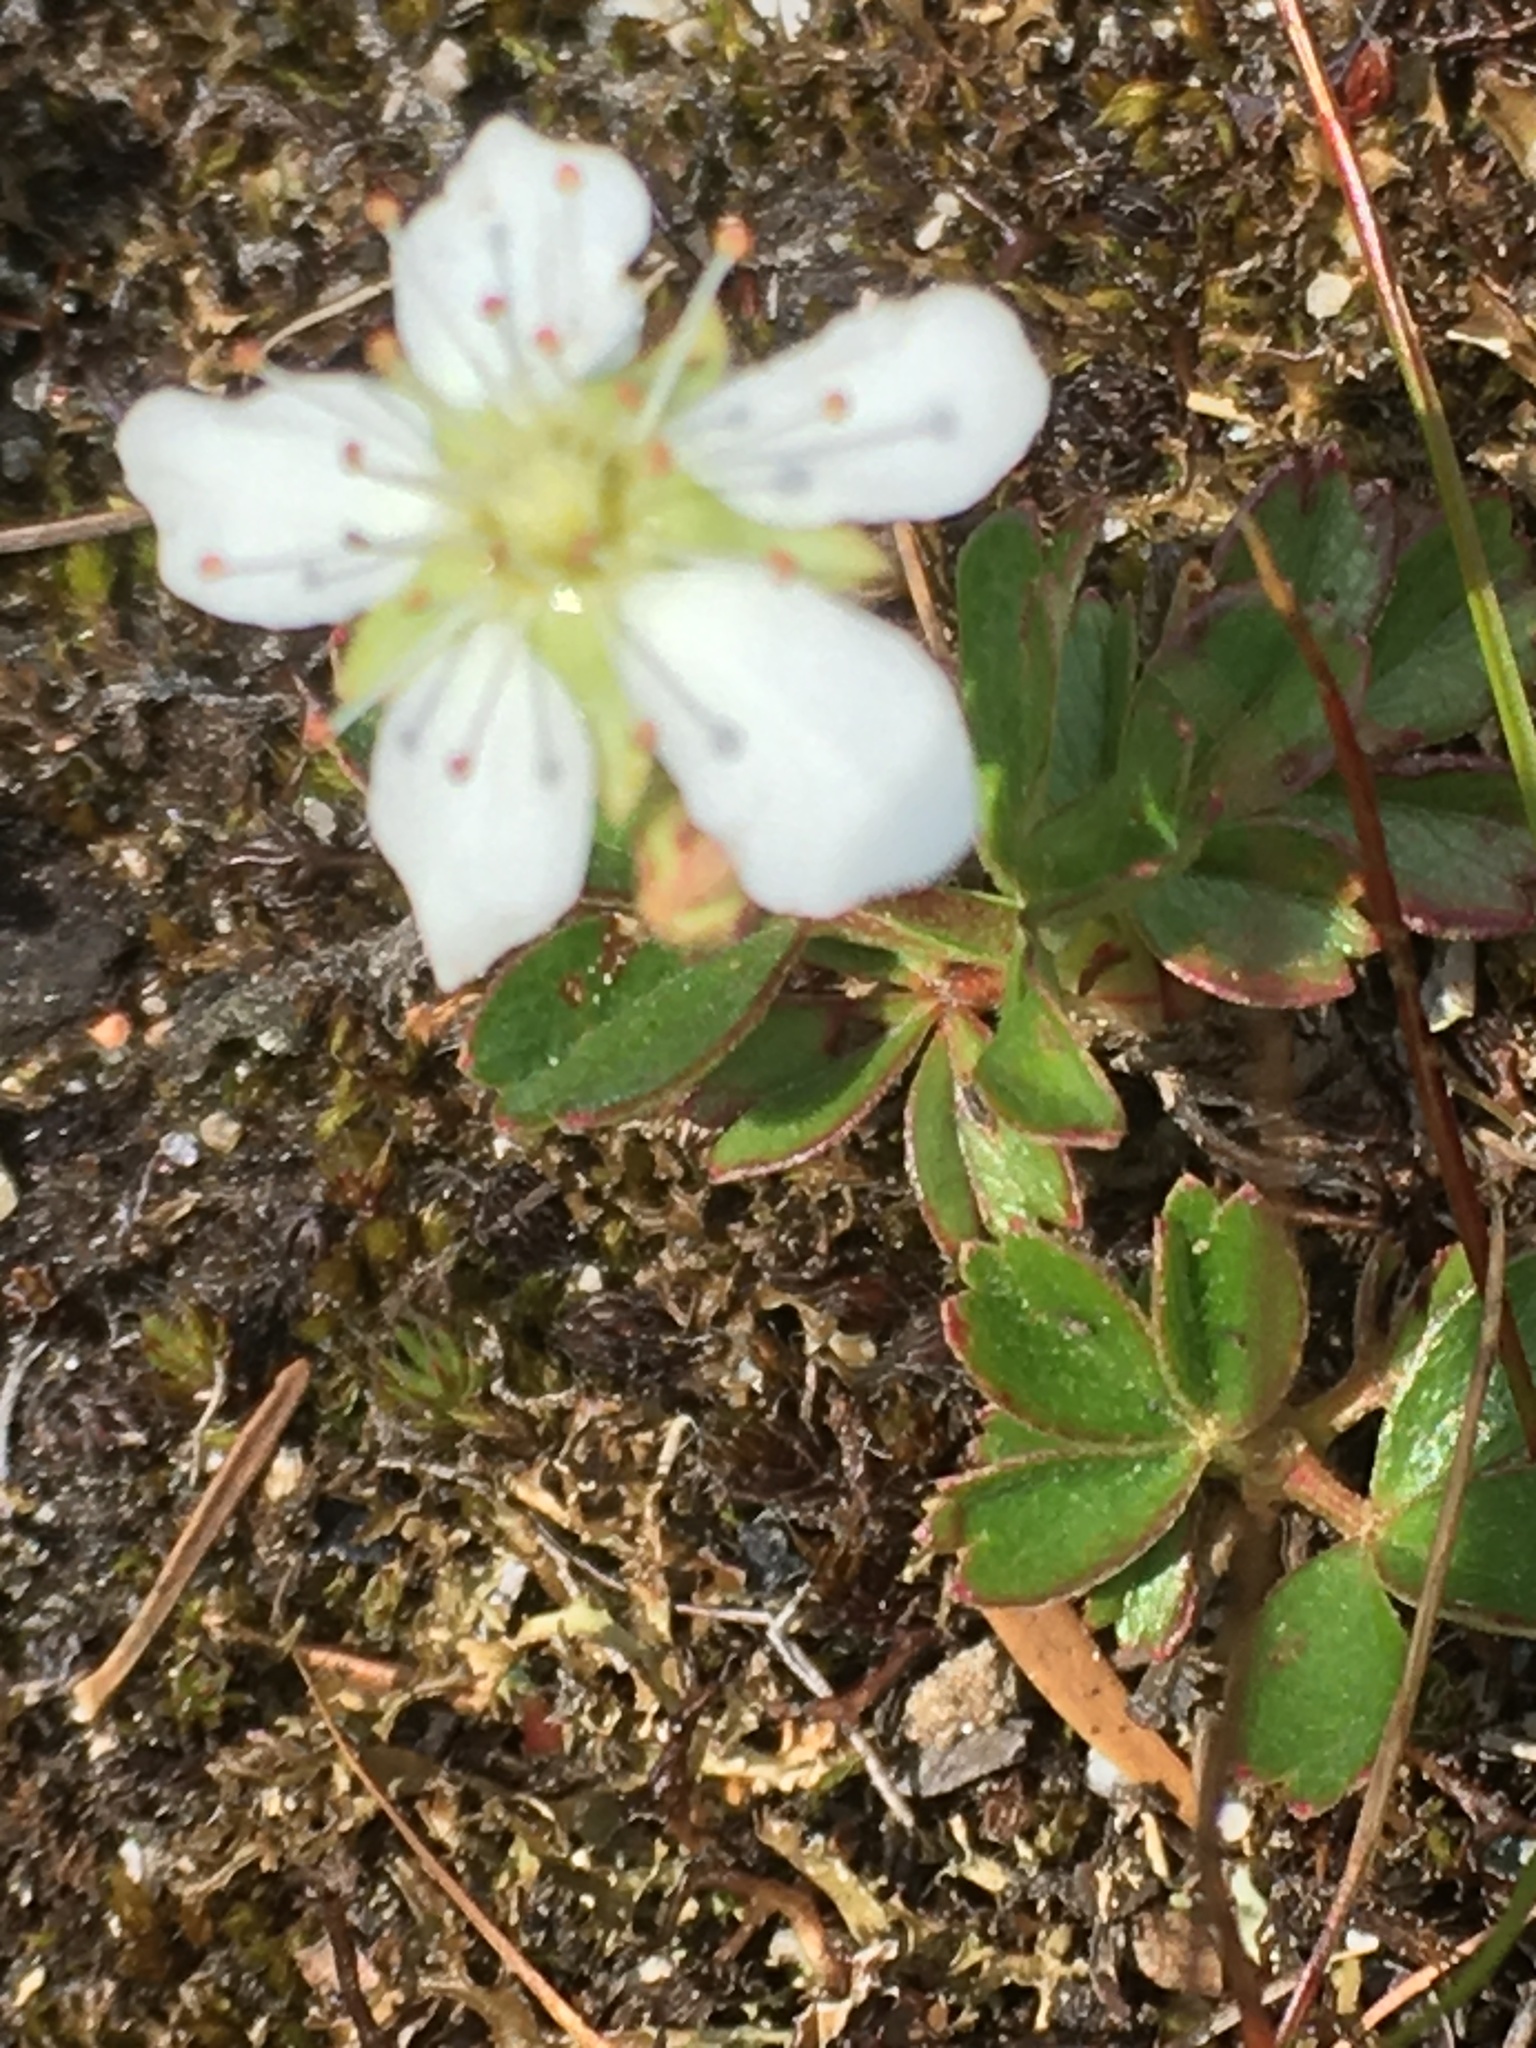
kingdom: Plantae
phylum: Tracheophyta
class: Magnoliopsida
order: Rosales
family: Rosaceae
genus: Sibbaldia
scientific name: Sibbaldia tridentata
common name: Three-toothed cinquefoil
